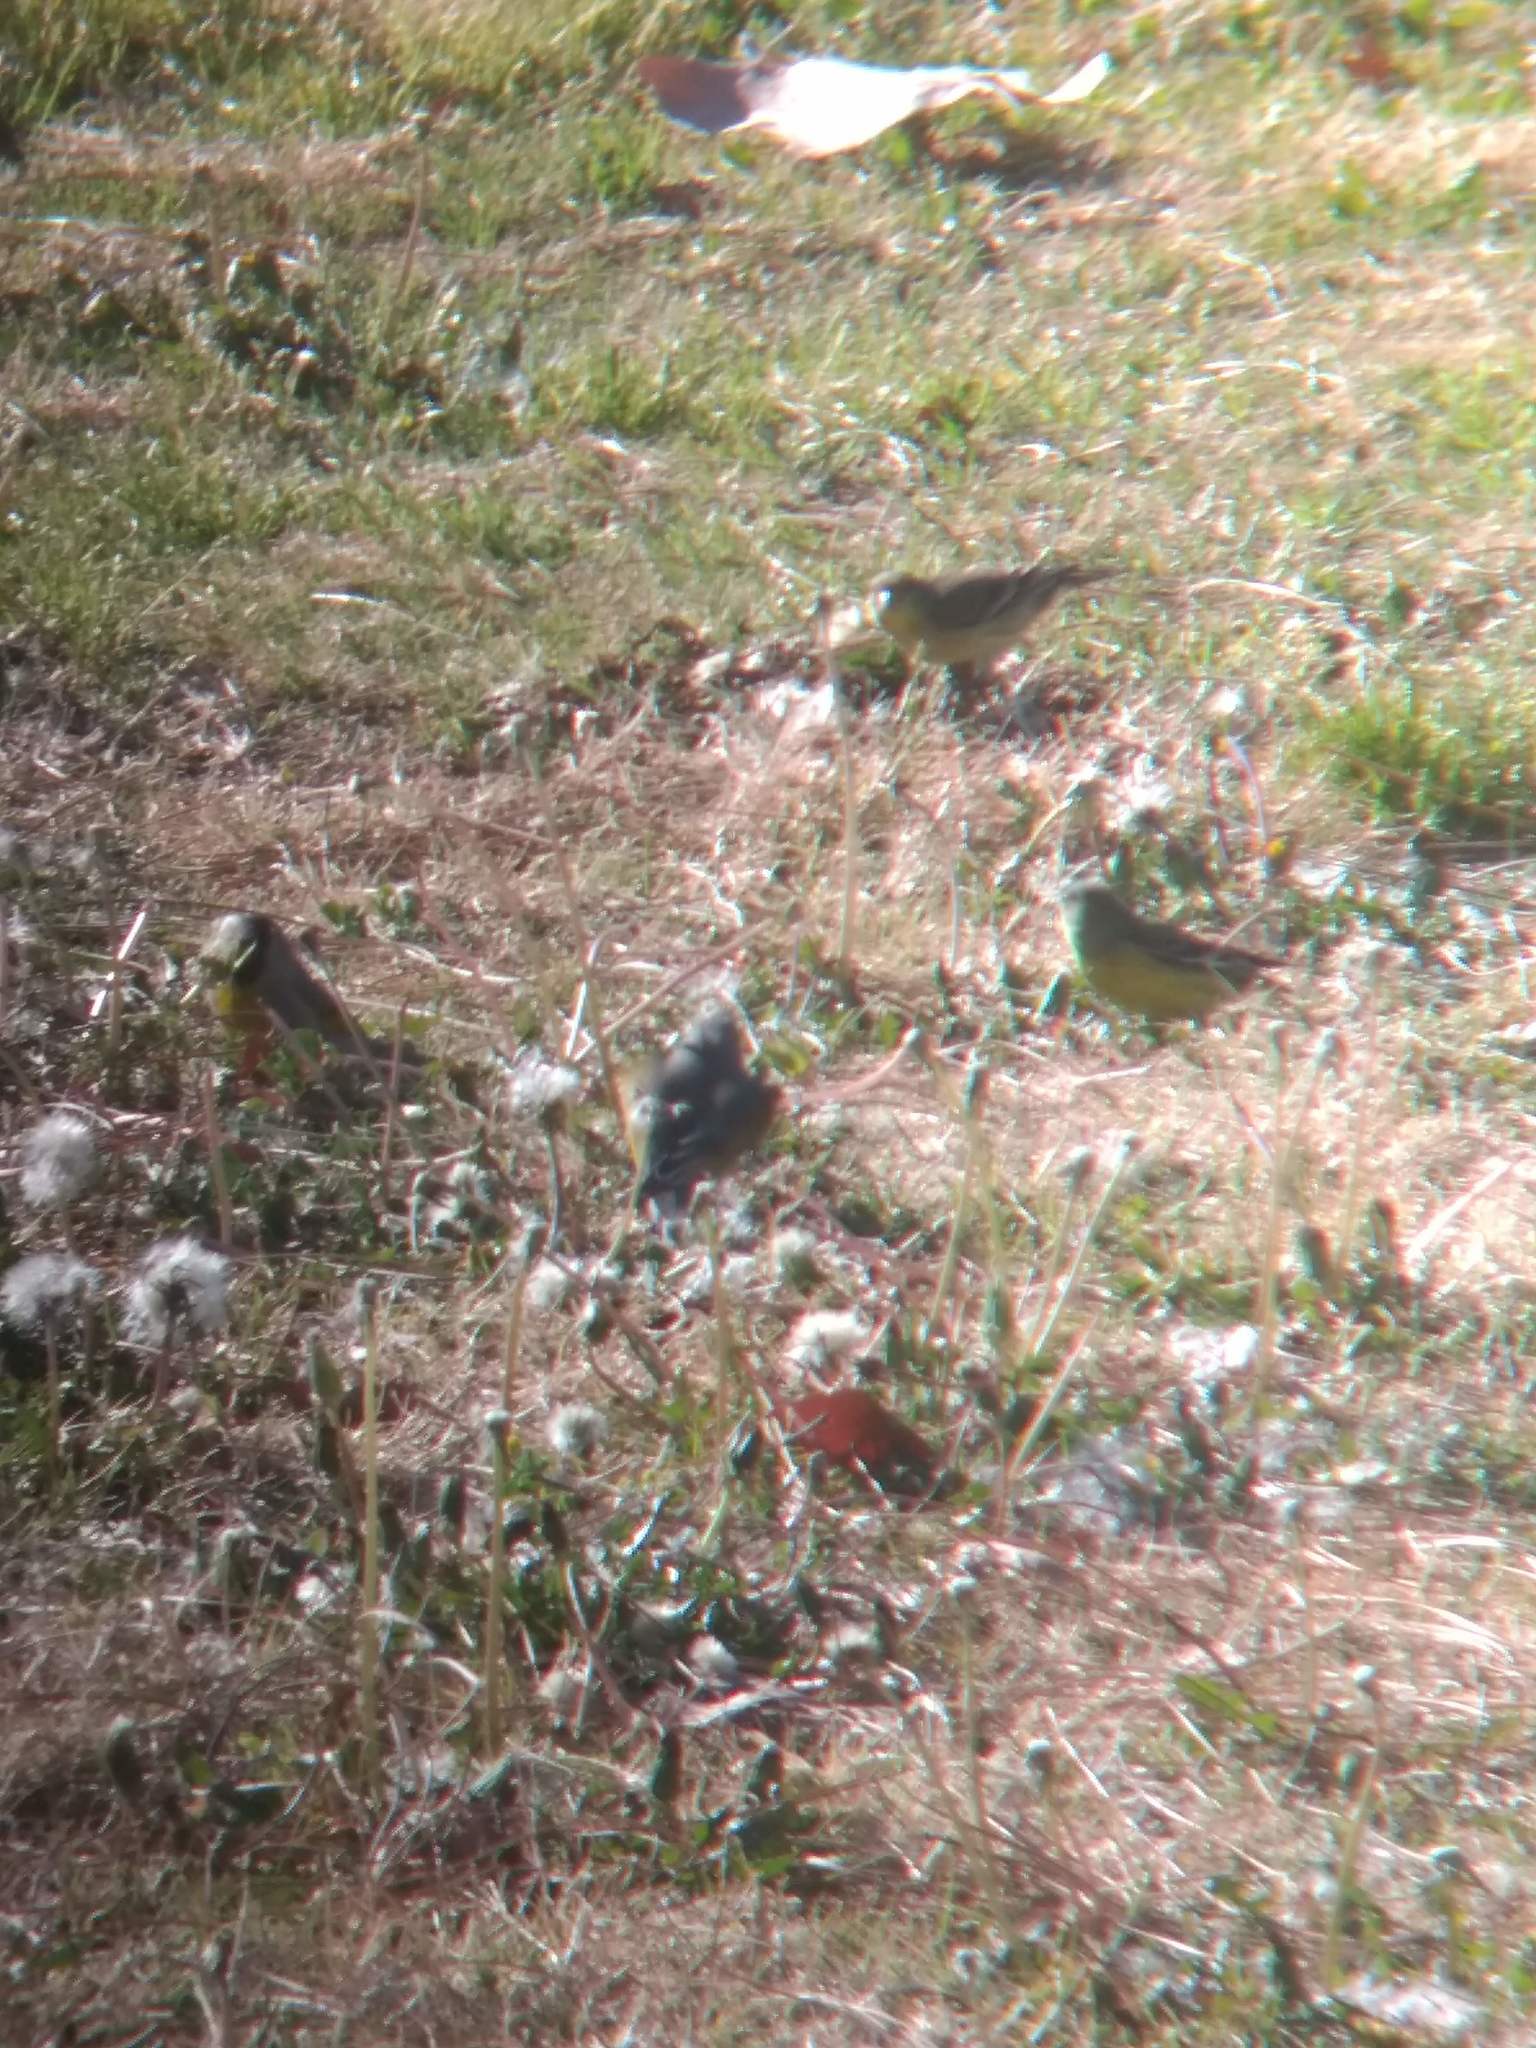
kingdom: Animalia
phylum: Chordata
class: Aves
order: Passeriformes
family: Fringillidae
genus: Spinus
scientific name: Spinus psaltria
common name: Lesser goldfinch
